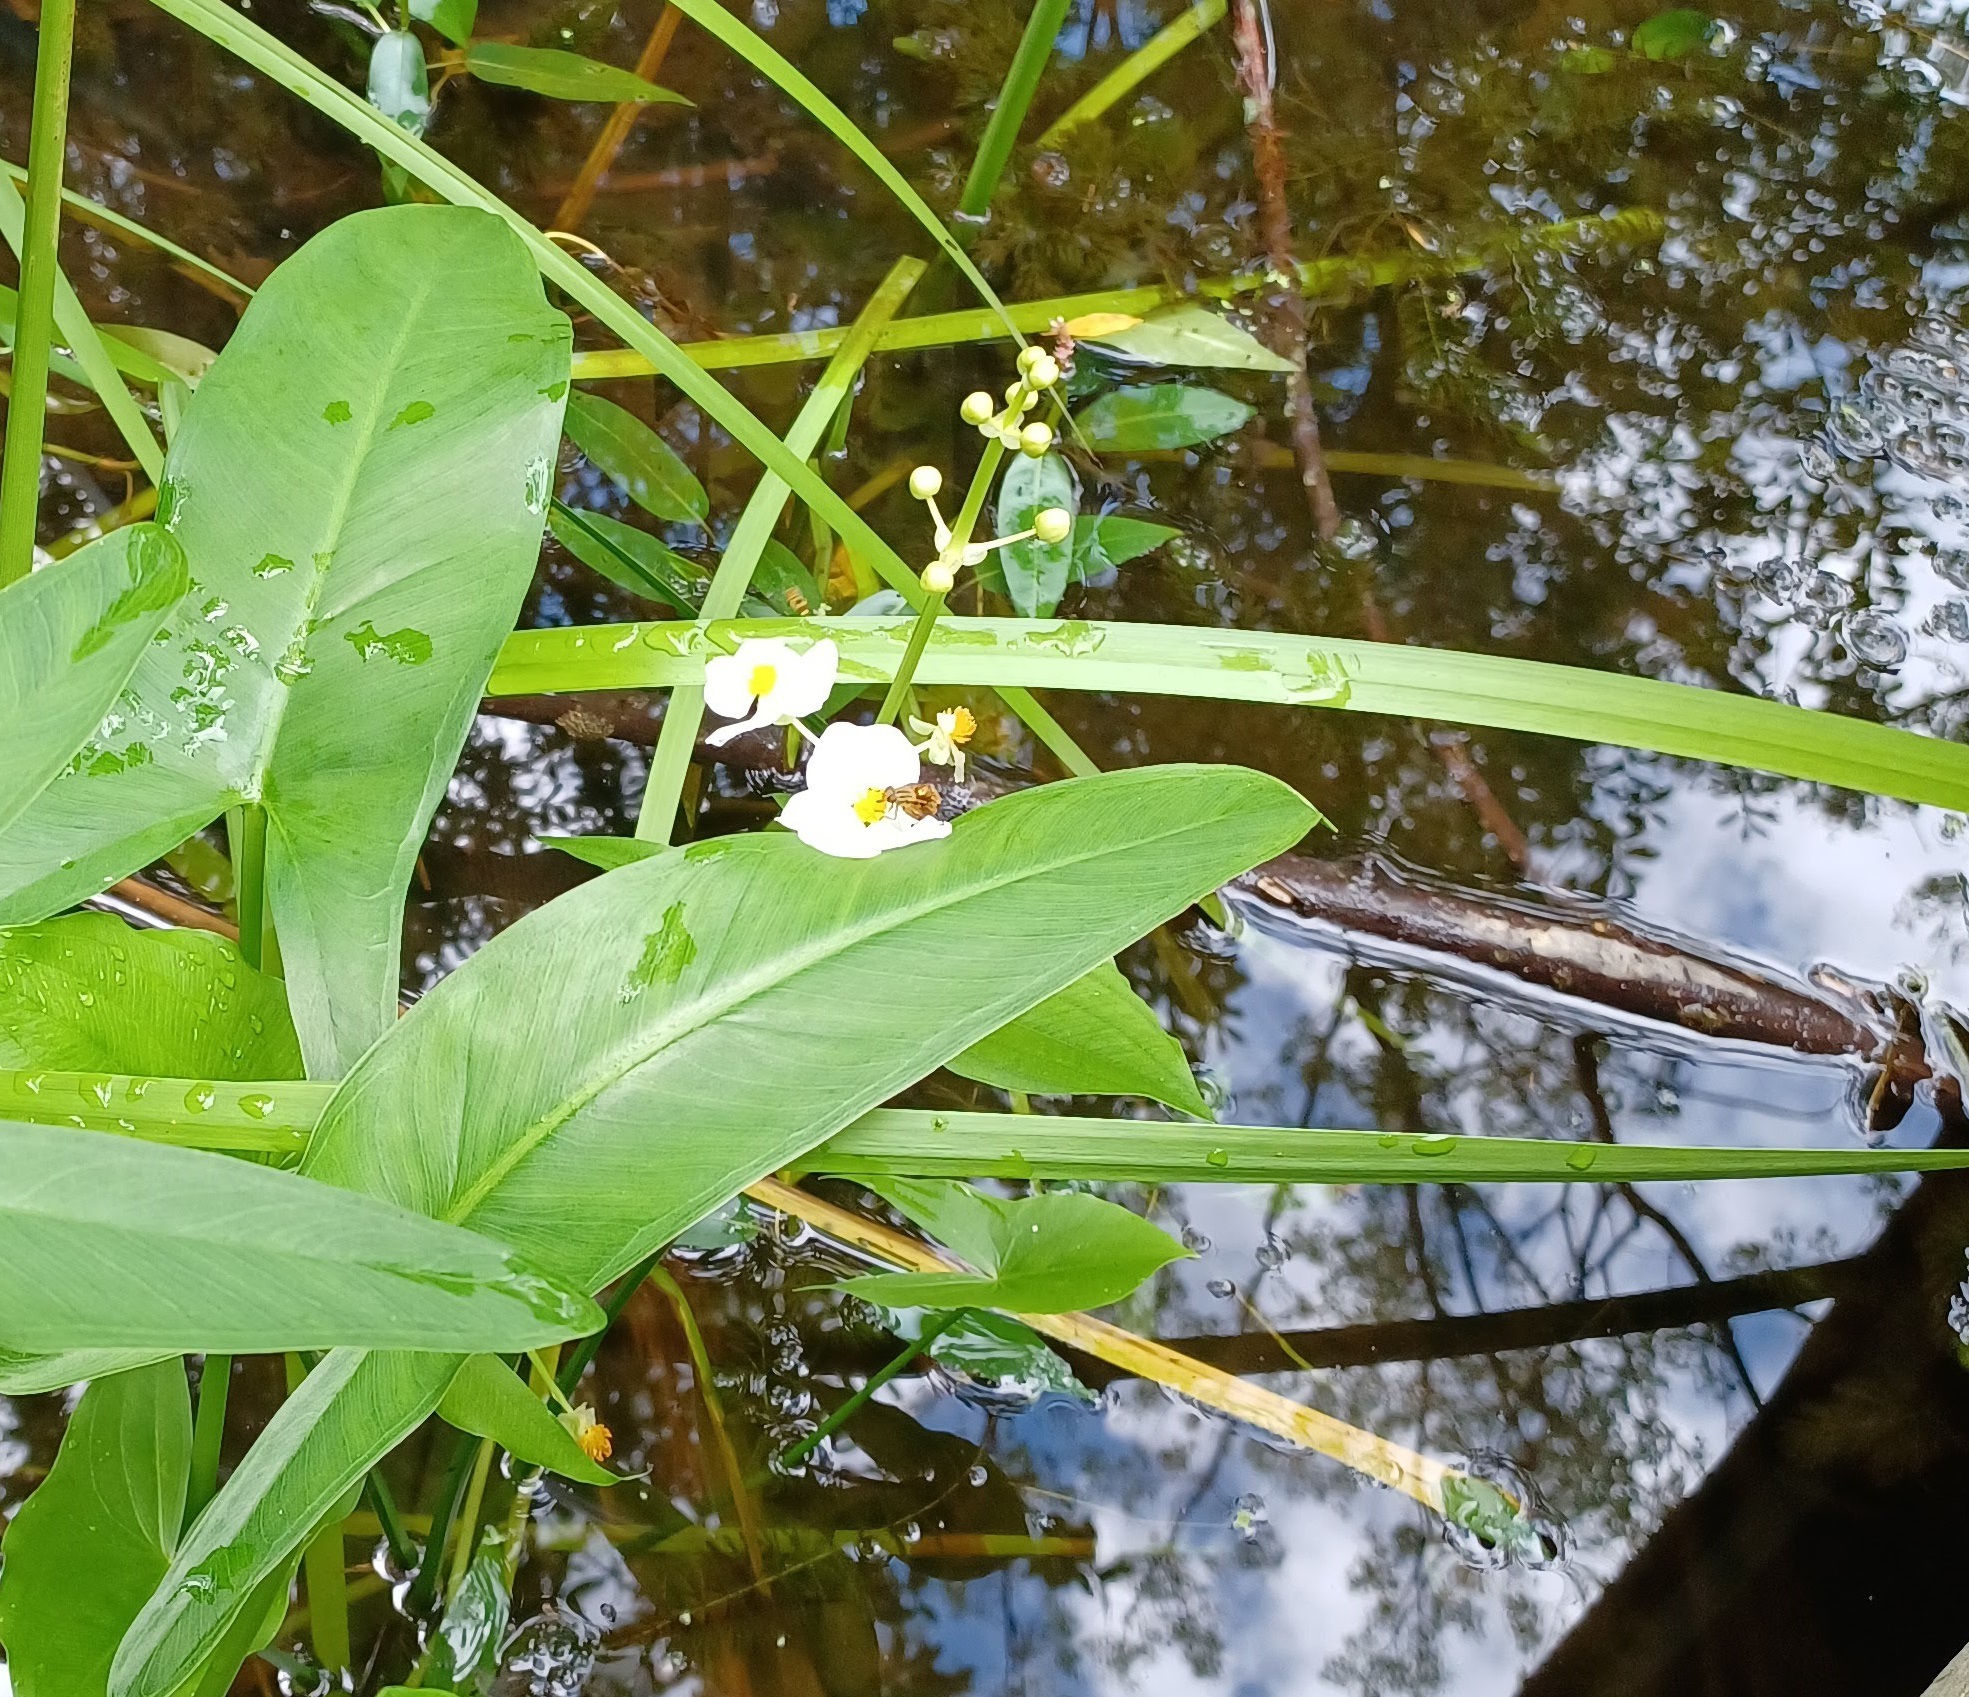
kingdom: Animalia
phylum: Arthropoda
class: Insecta
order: Diptera
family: Syrphidae
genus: Parhelophilus
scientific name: Parhelophilus
